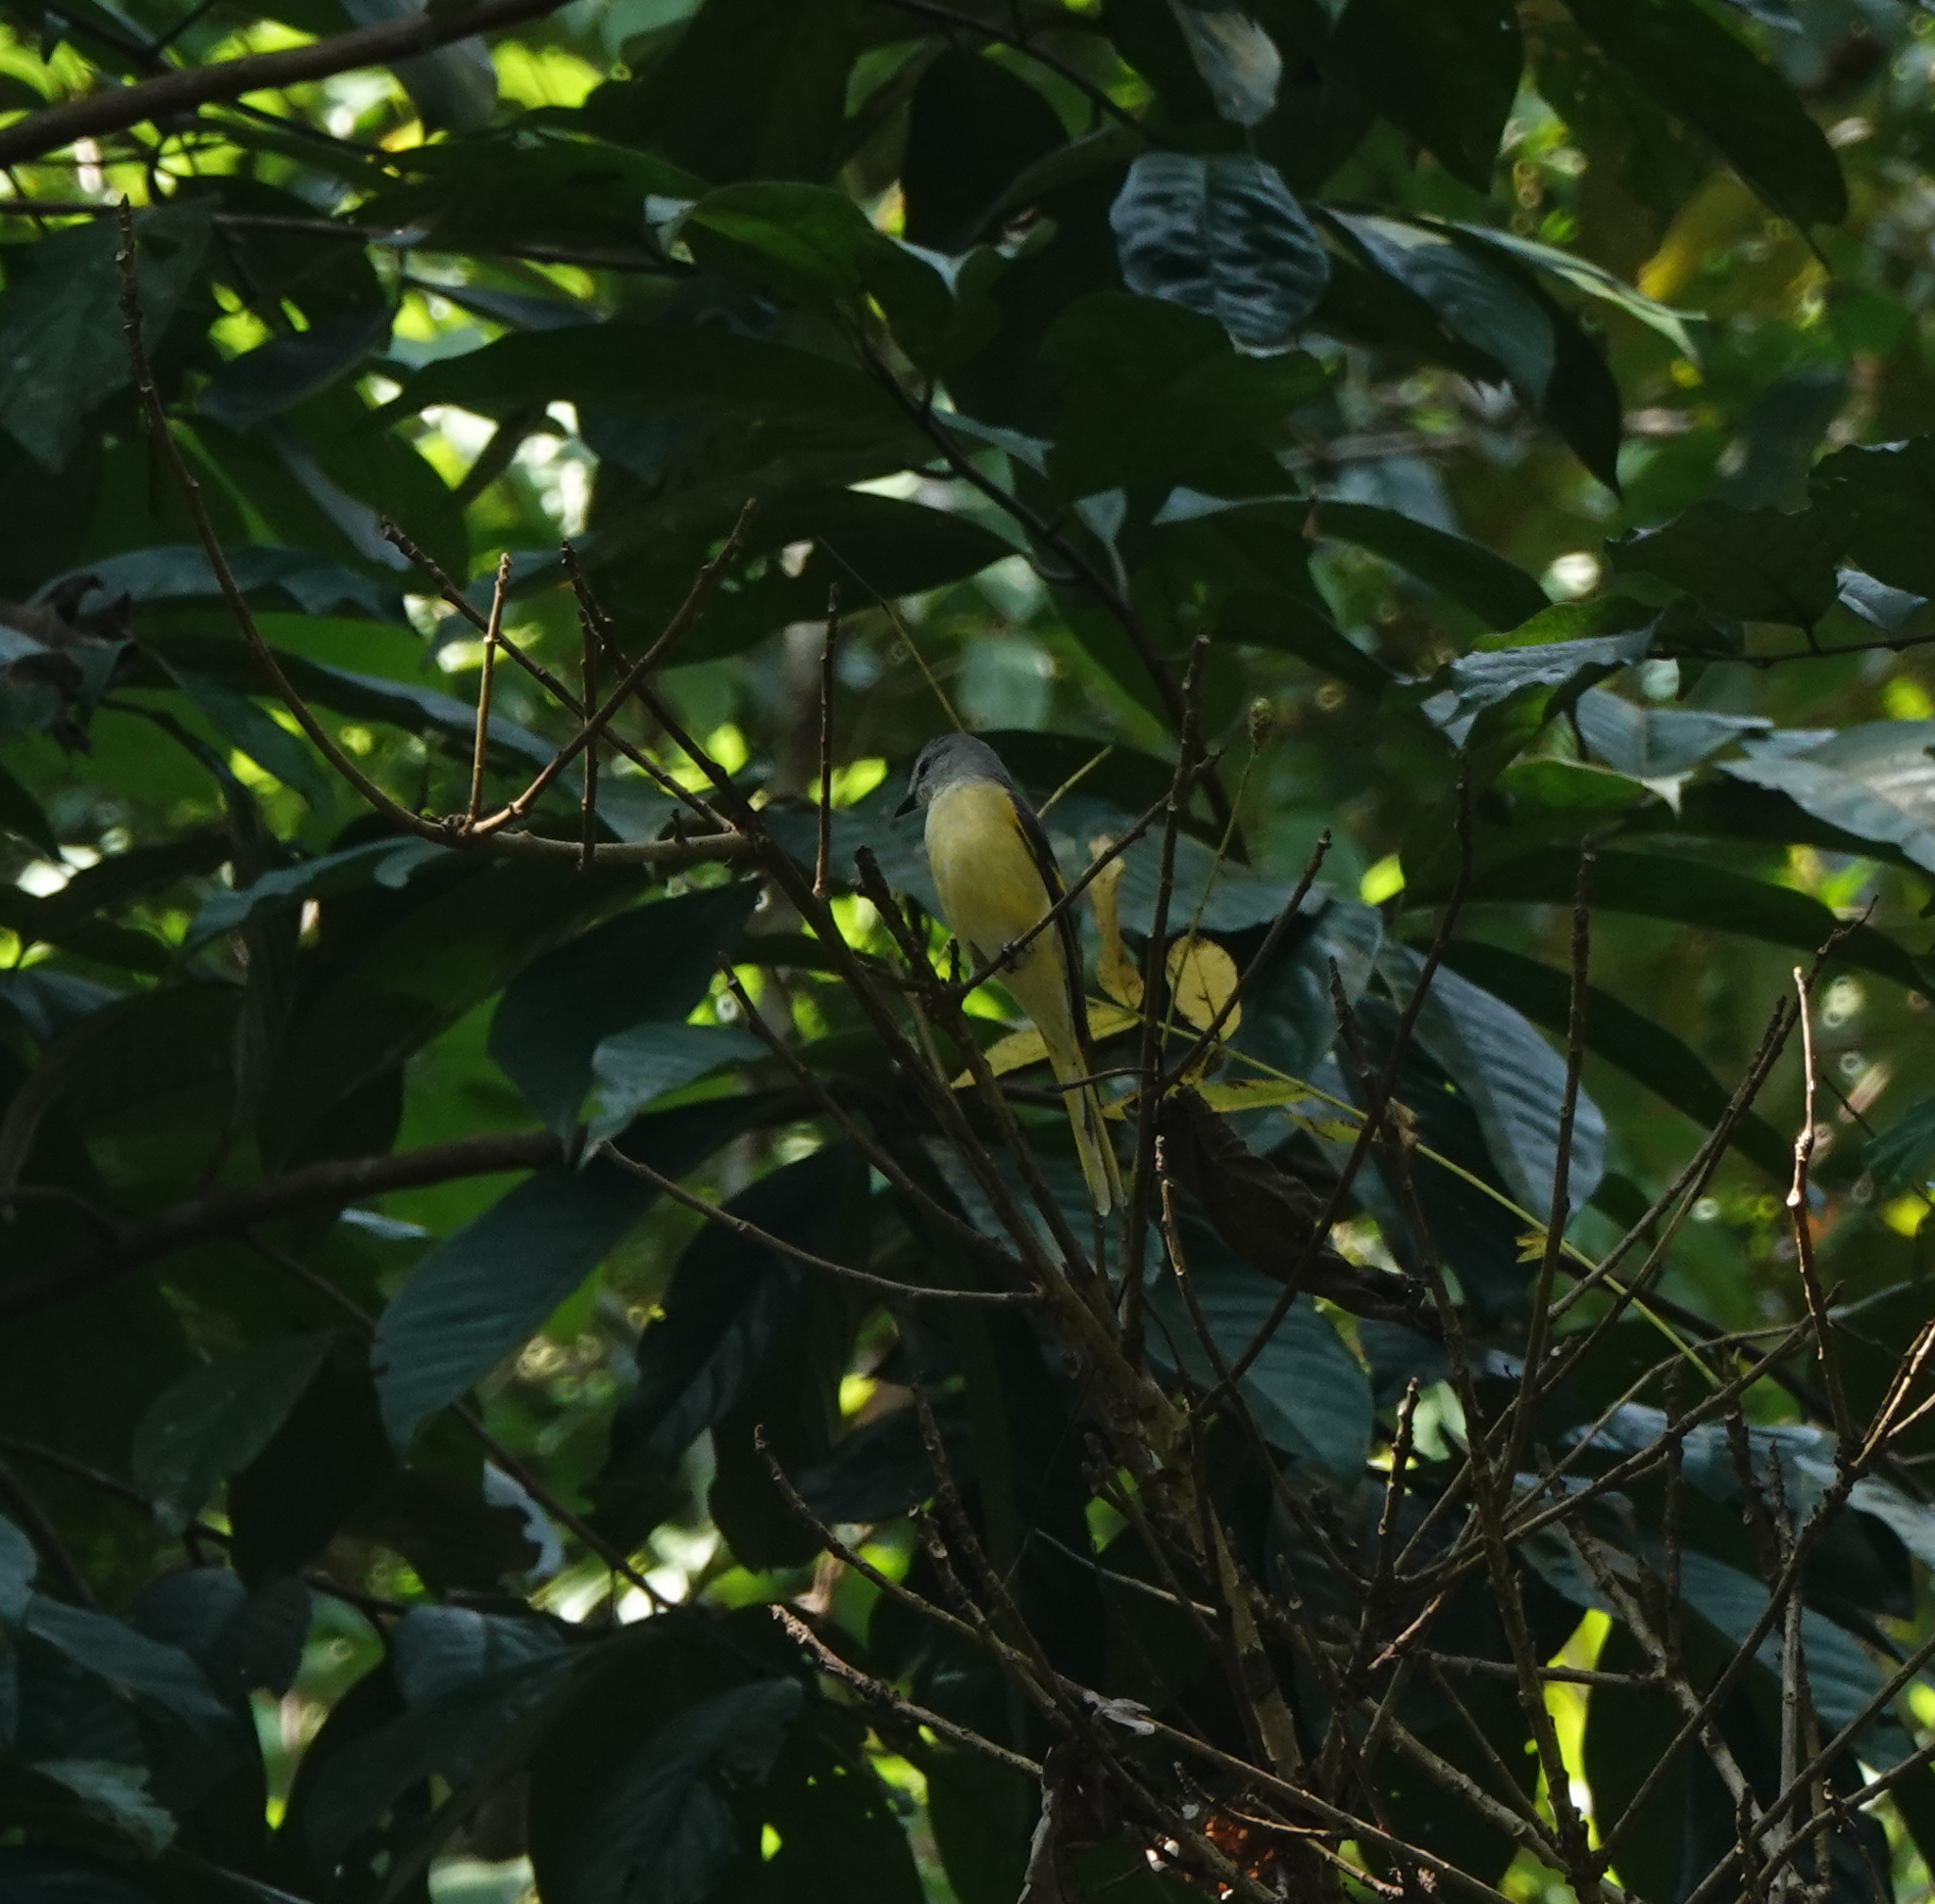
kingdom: Animalia
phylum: Chordata
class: Aves
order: Passeriformes
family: Campephagidae
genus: Pericrocotus
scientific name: Pericrocotus speciosus
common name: Scarlet minivet
